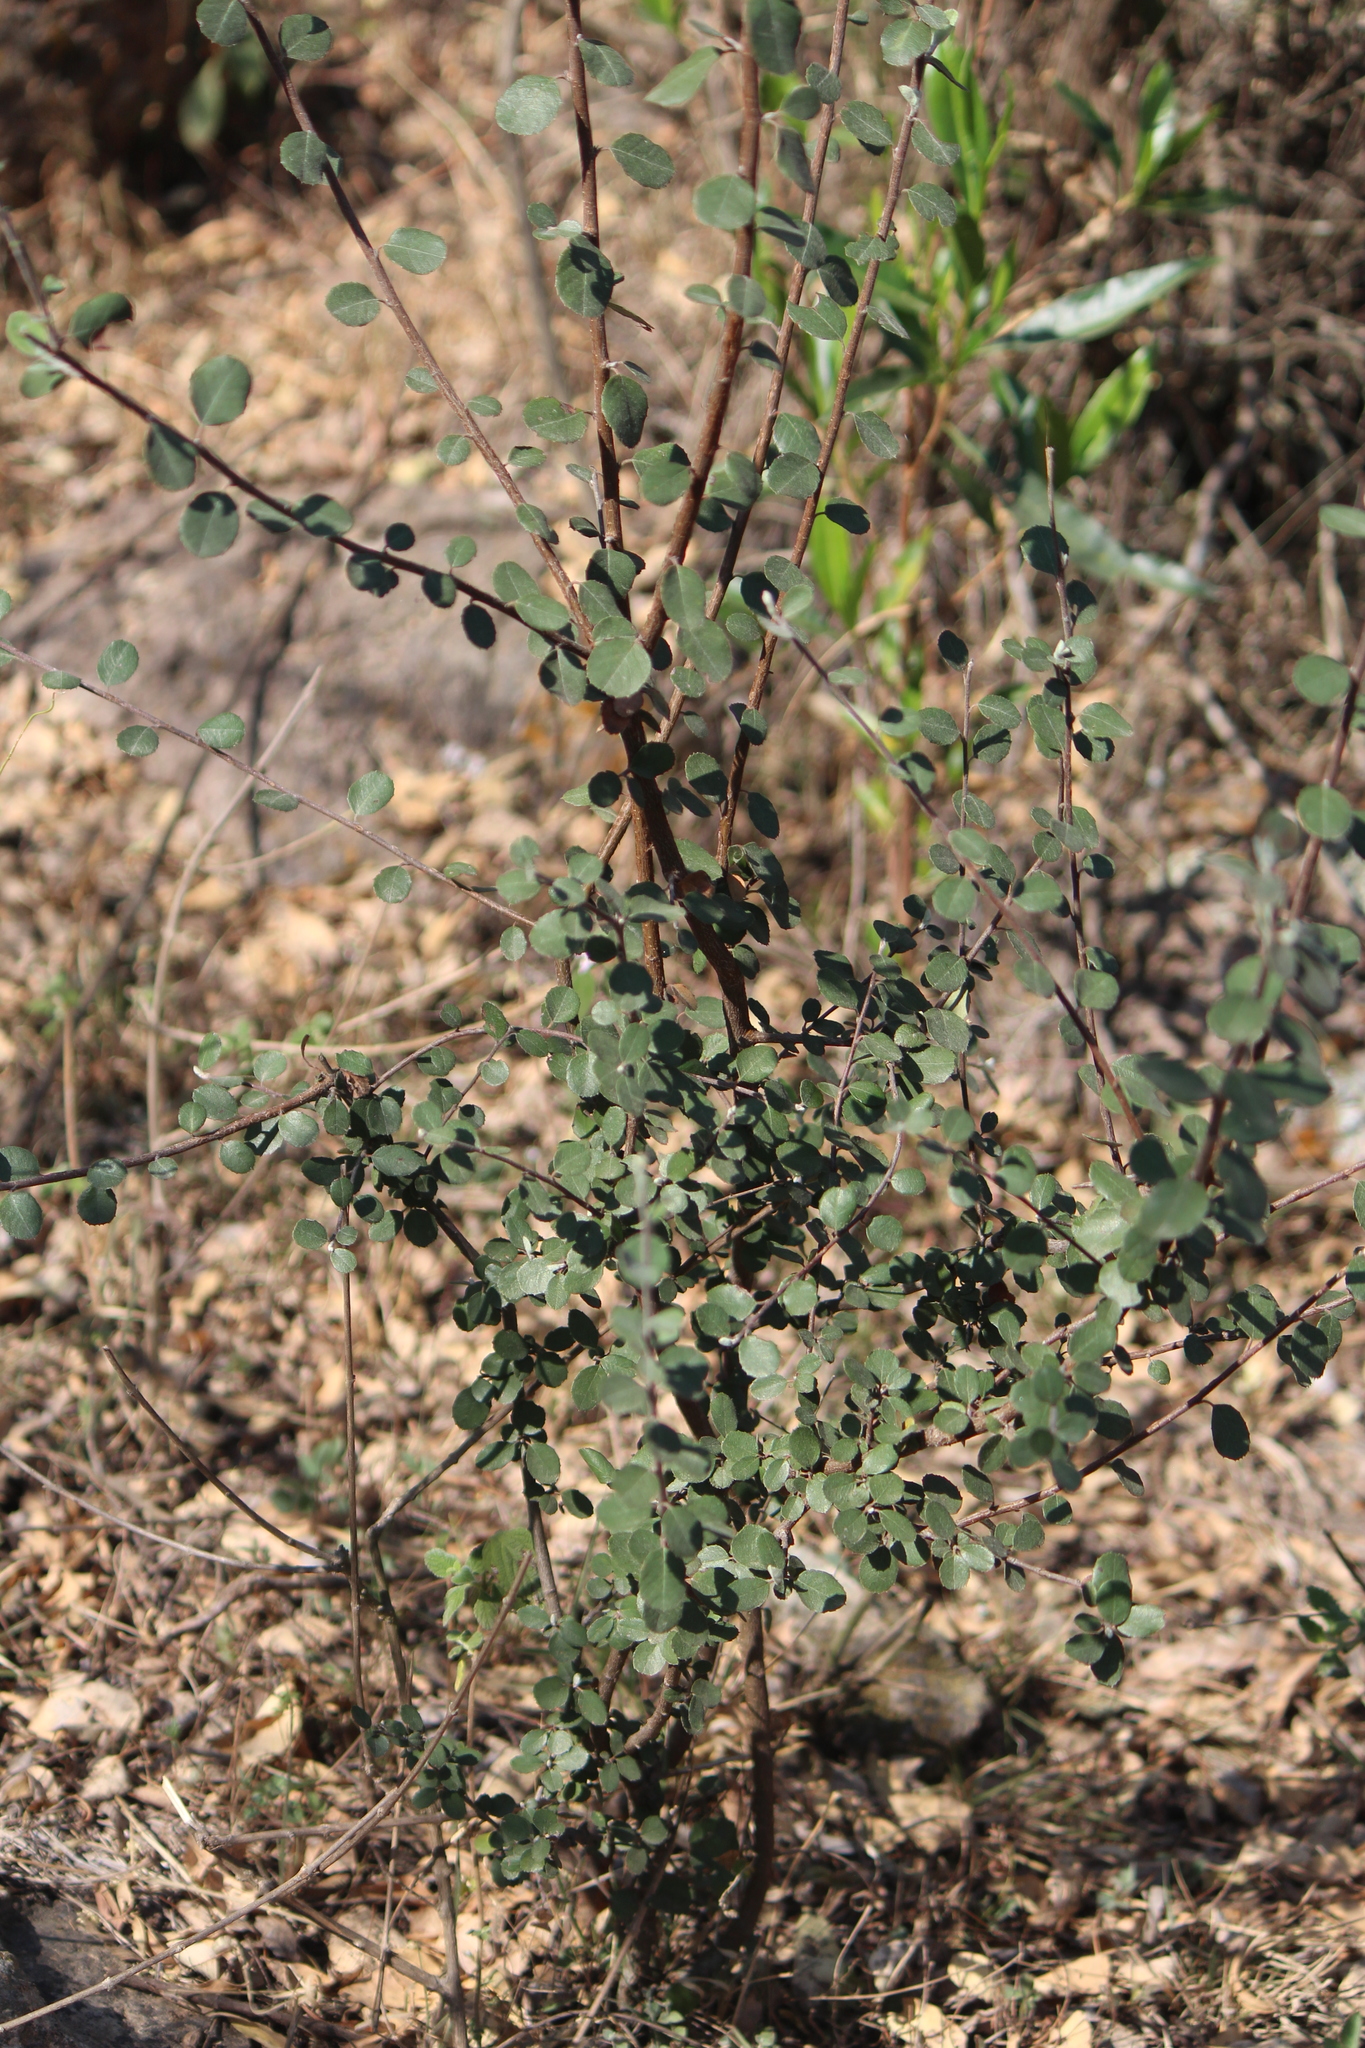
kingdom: Plantae
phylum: Tracheophyta
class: Magnoliopsida
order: Rosales
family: Rosaceae
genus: Malacomeles
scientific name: Malacomeles denticulata
